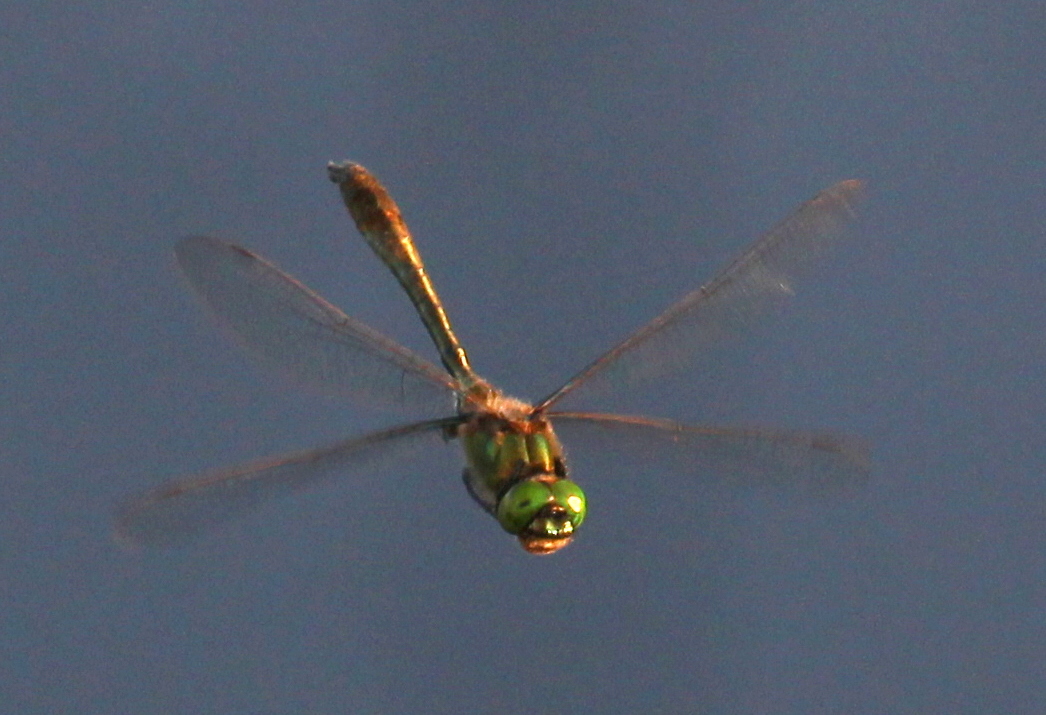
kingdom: Animalia
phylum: Arthropoda
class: Insecta
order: Odonata
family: Corduliidae
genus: Cordulia
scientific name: Cordulia aenea
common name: Downy emerald
